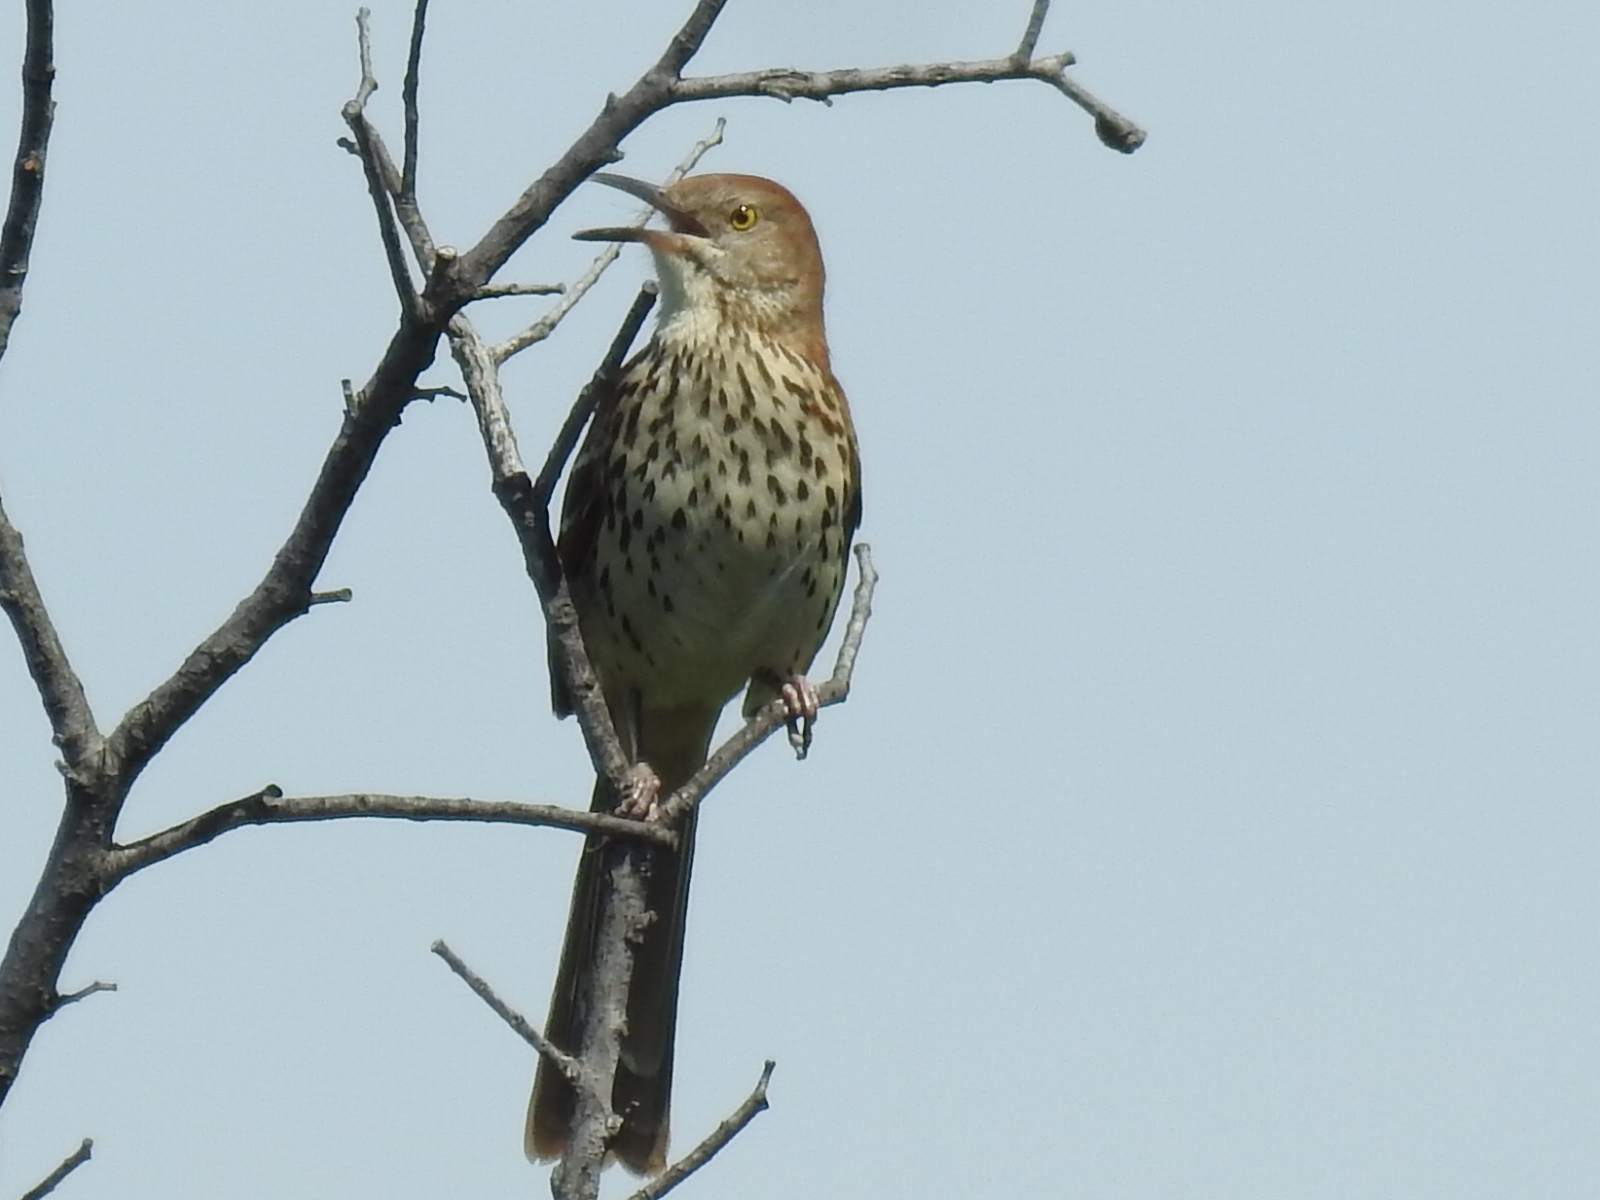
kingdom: Animalia
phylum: Chordata
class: Aves
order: Passeriformes
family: Mimidae
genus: Toxostoma
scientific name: Toxostoma rufum
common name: Brown thrasher
